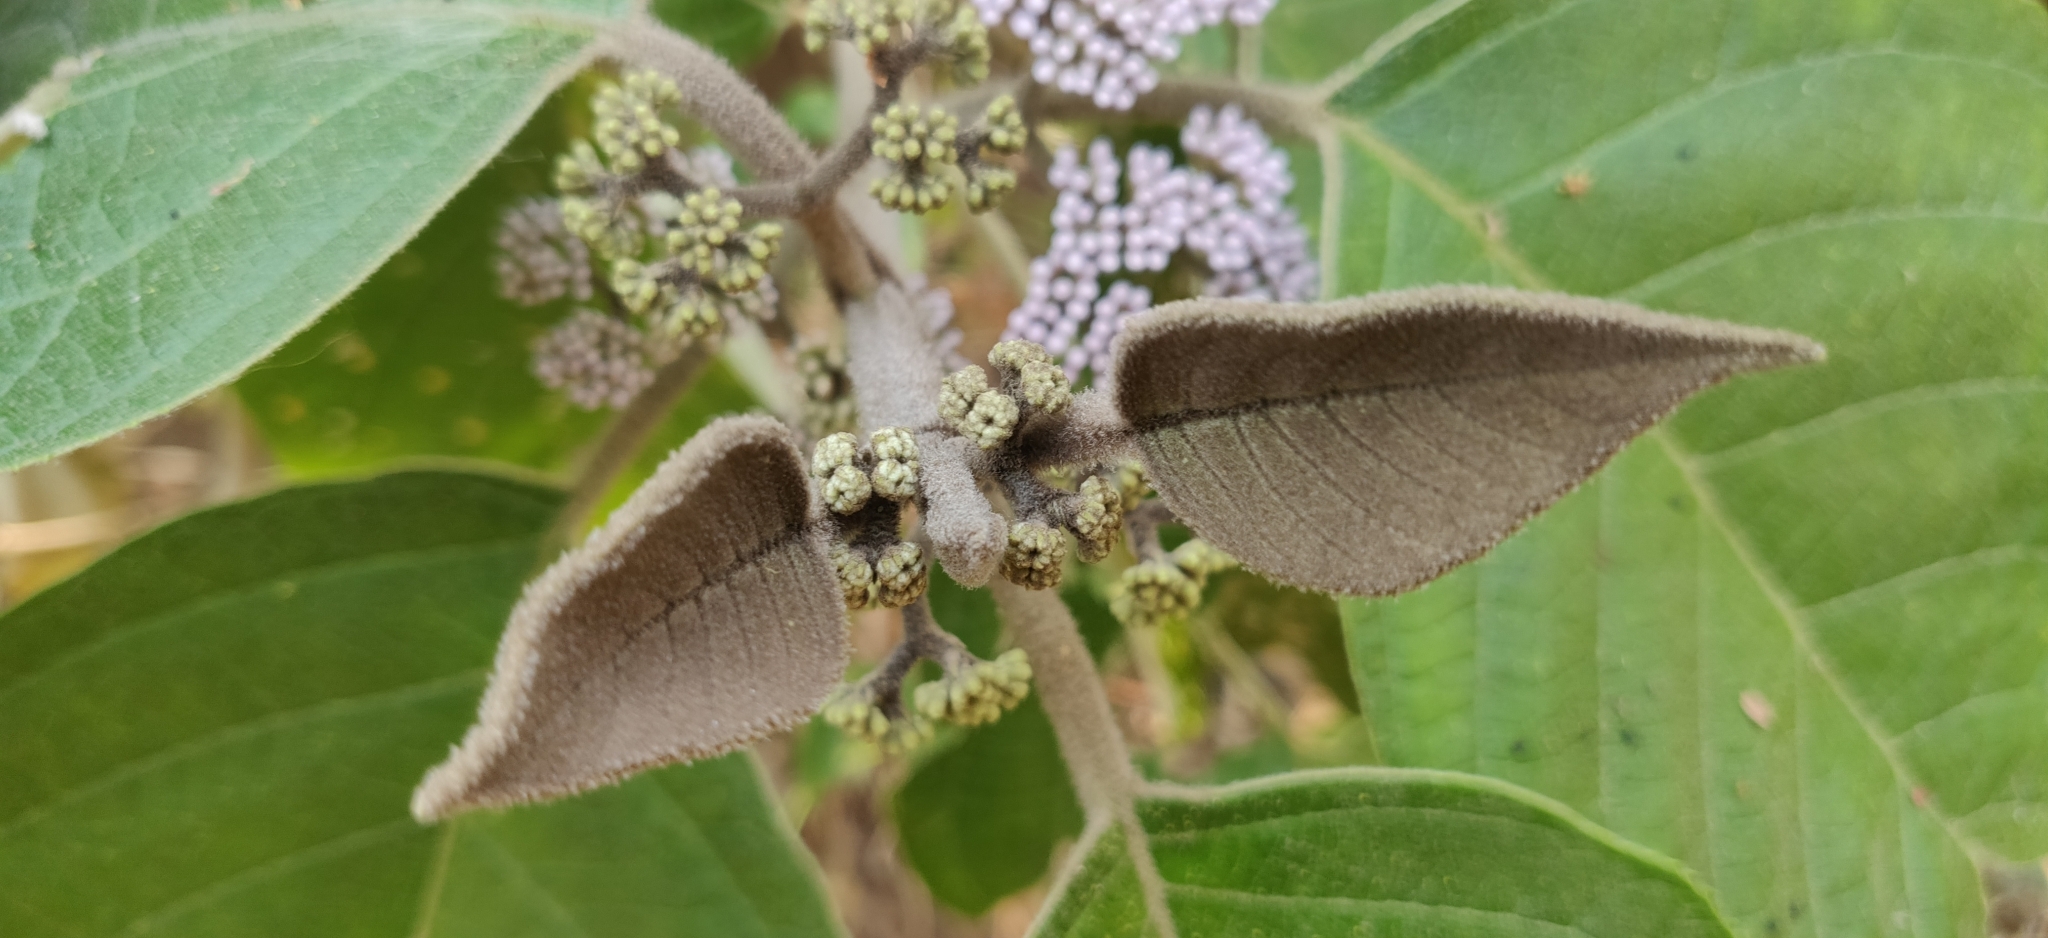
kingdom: Plantae
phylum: Tracheophyta
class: Magnoliopsida
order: Lamiales
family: Lamiaceae
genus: Callicarpa
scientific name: Callicarpa tomentosa
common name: Great woolly malayan-lilac
